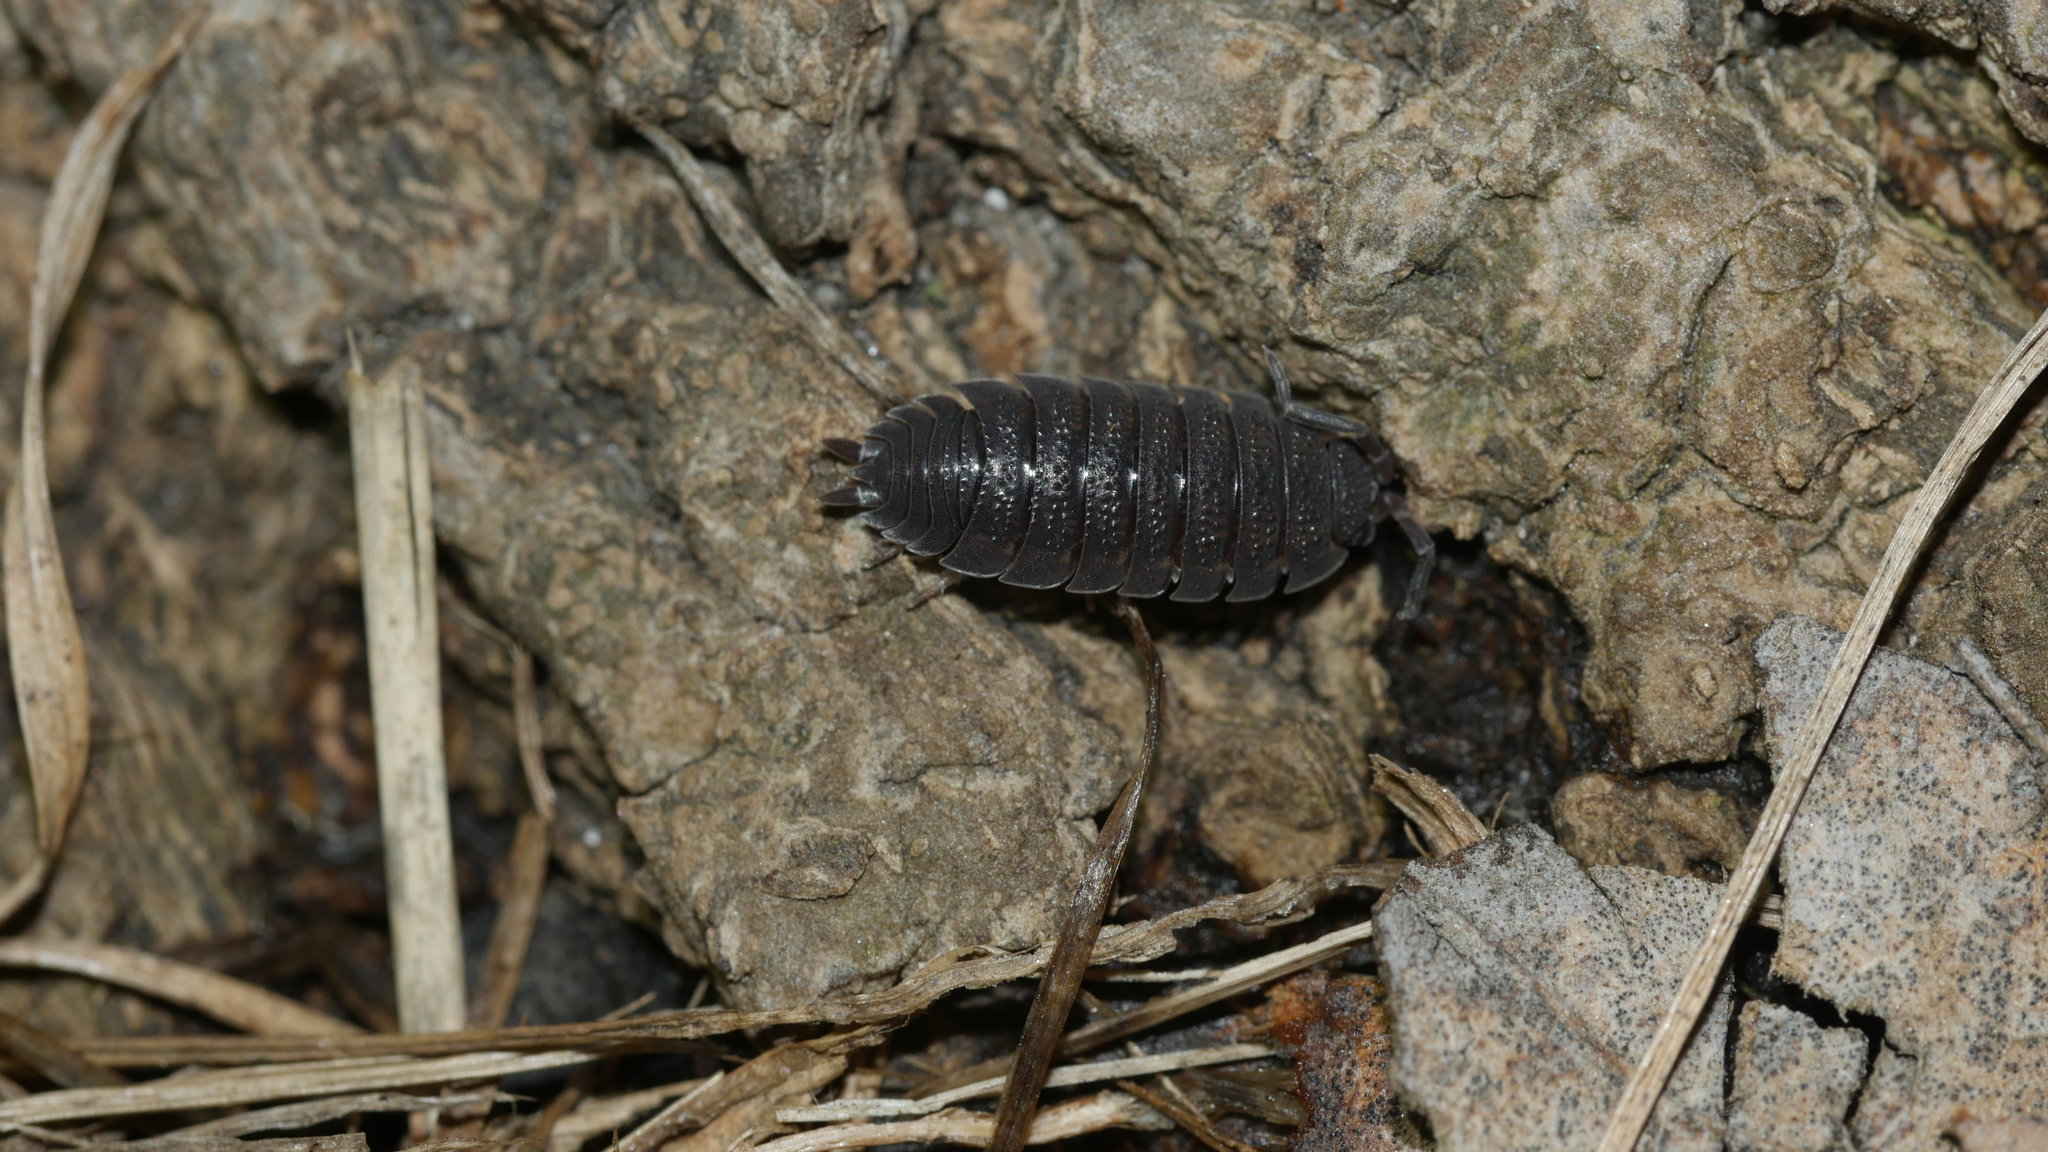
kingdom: Animalia
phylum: Arthropoda
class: Malacostraca
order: Isopoda
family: Porcellionidae
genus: Porcellio
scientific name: Porcellio scaber
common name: Common rough woodlouse
